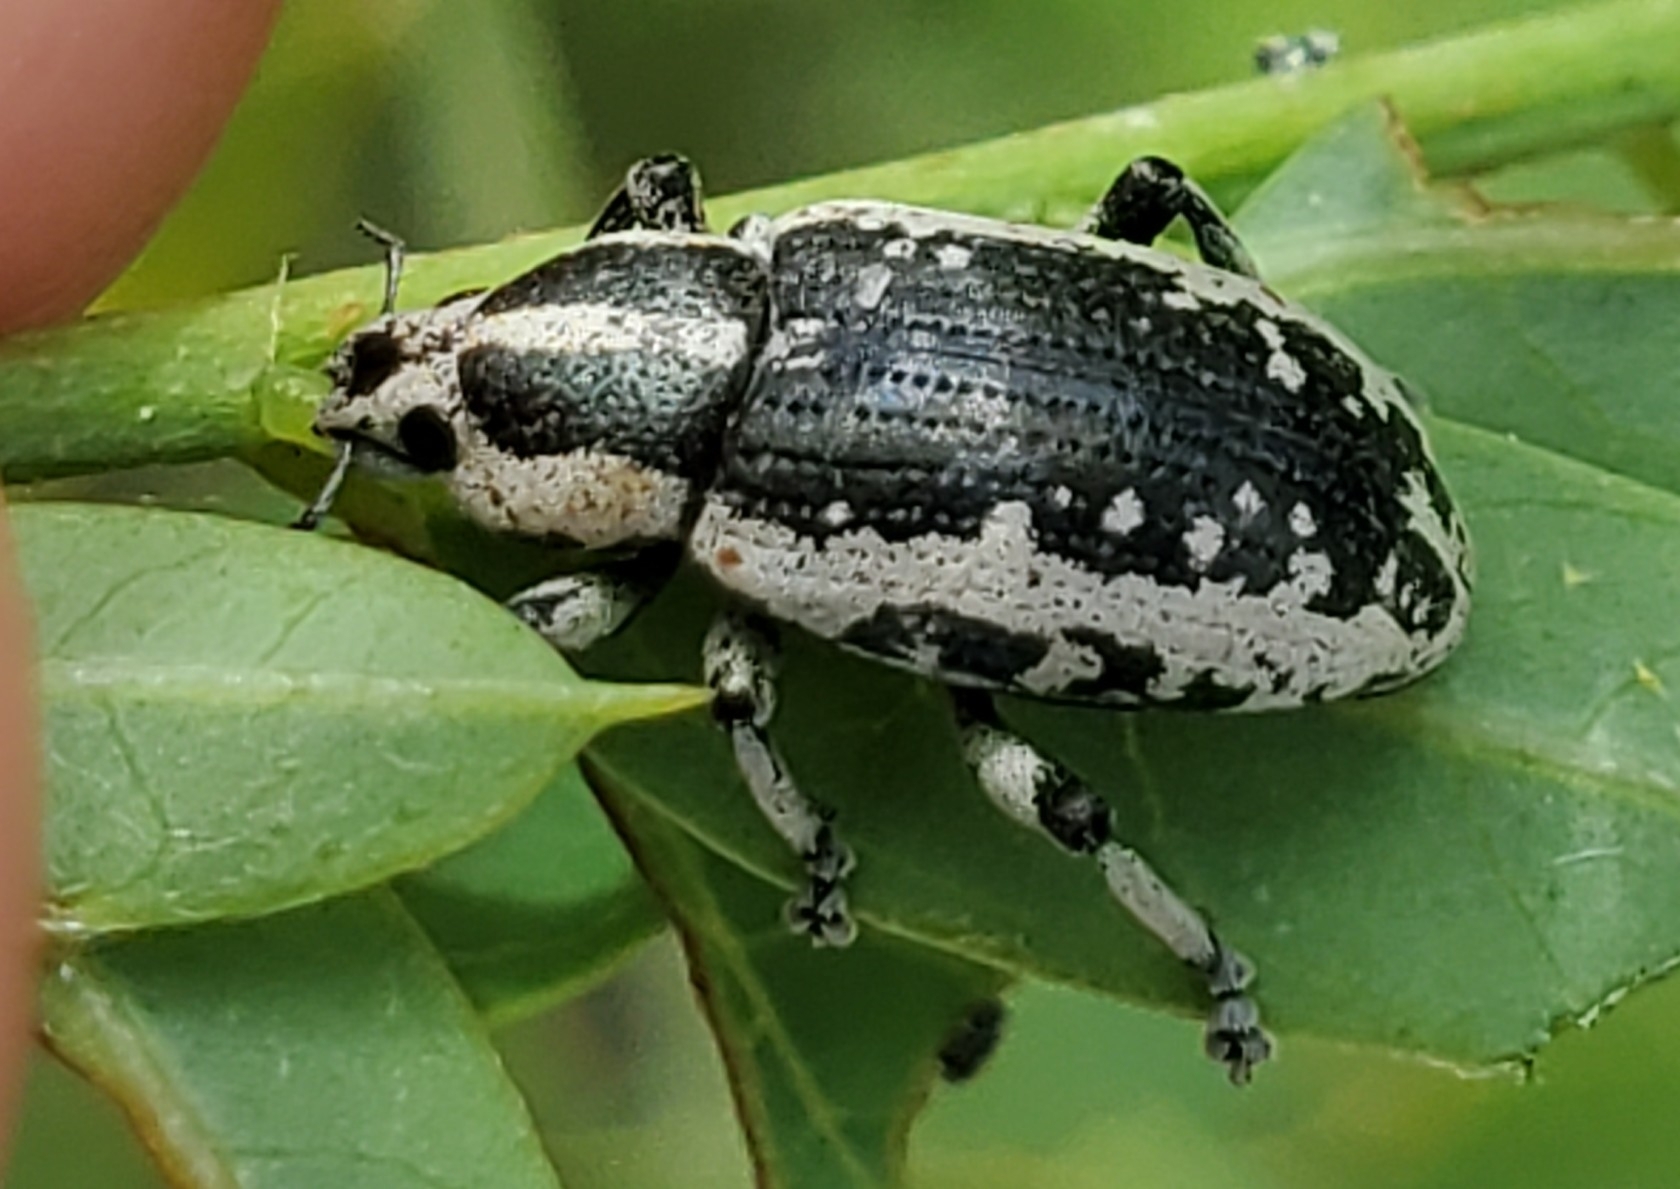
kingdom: Animalia
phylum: Arthropoda
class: Insecta
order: Coleoptera
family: Curculionidae
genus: Eudiagogus
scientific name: Eudiagogus rosenschoeldi
